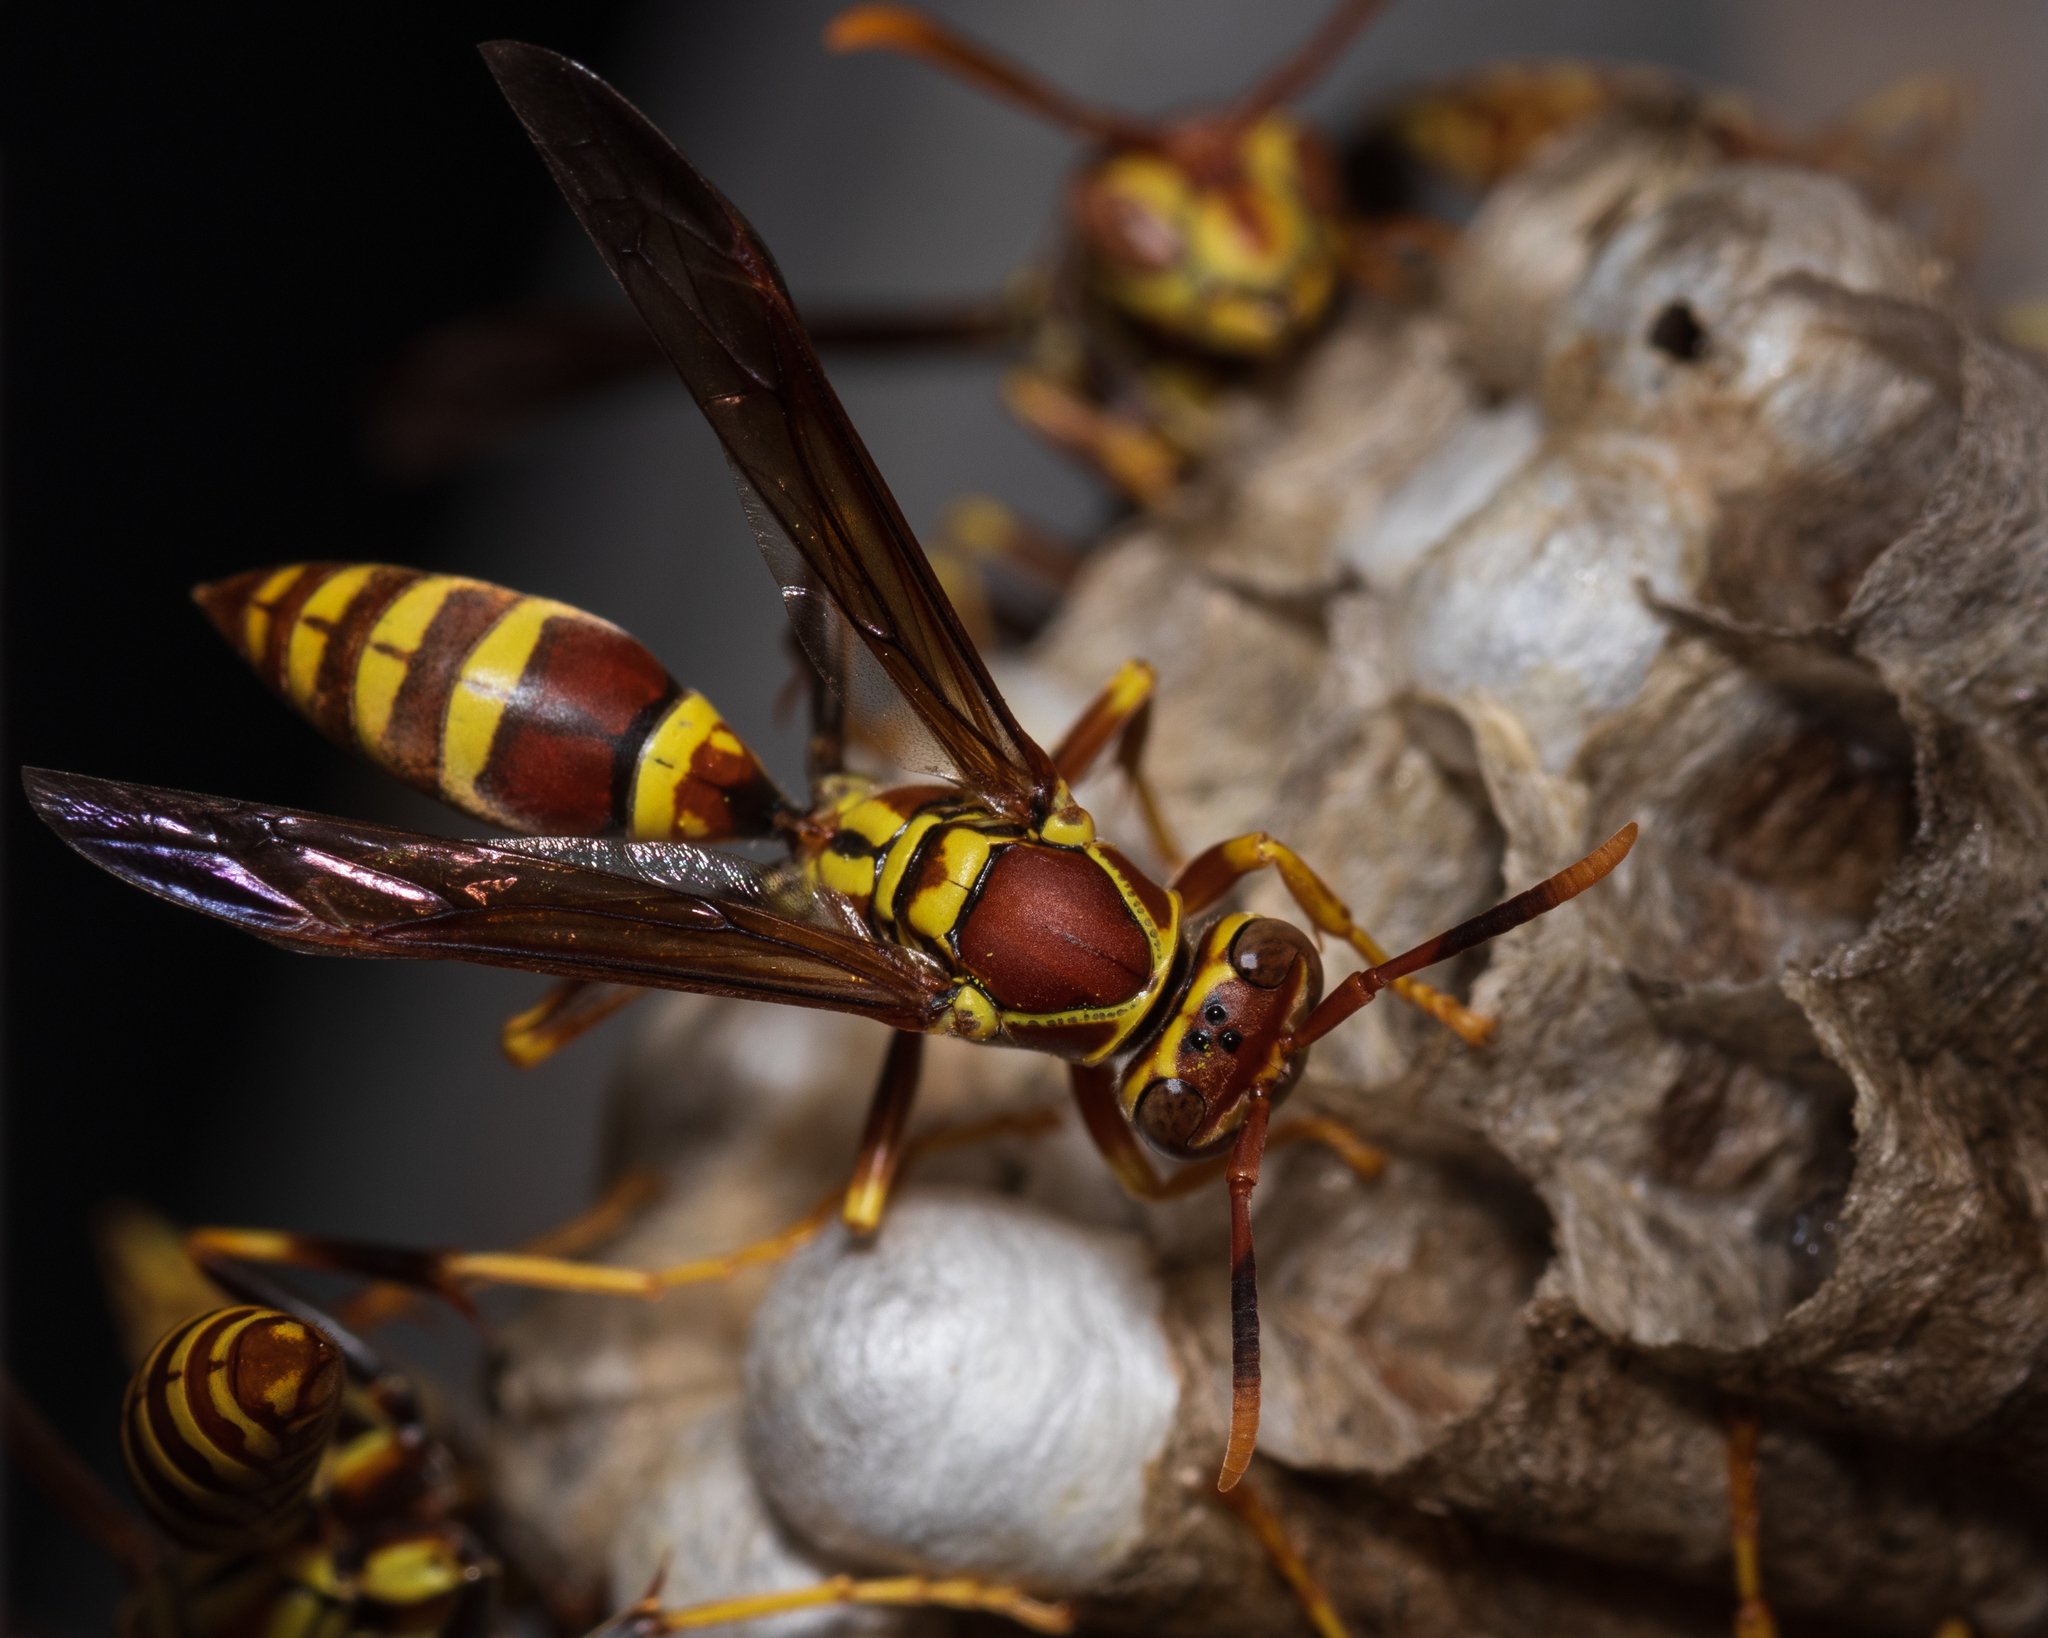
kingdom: Animalia
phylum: Arthropoda
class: Insecta
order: Hymenoptera
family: Eumenidae
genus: Polistes
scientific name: Polistes exclamans
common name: Paper wasp
